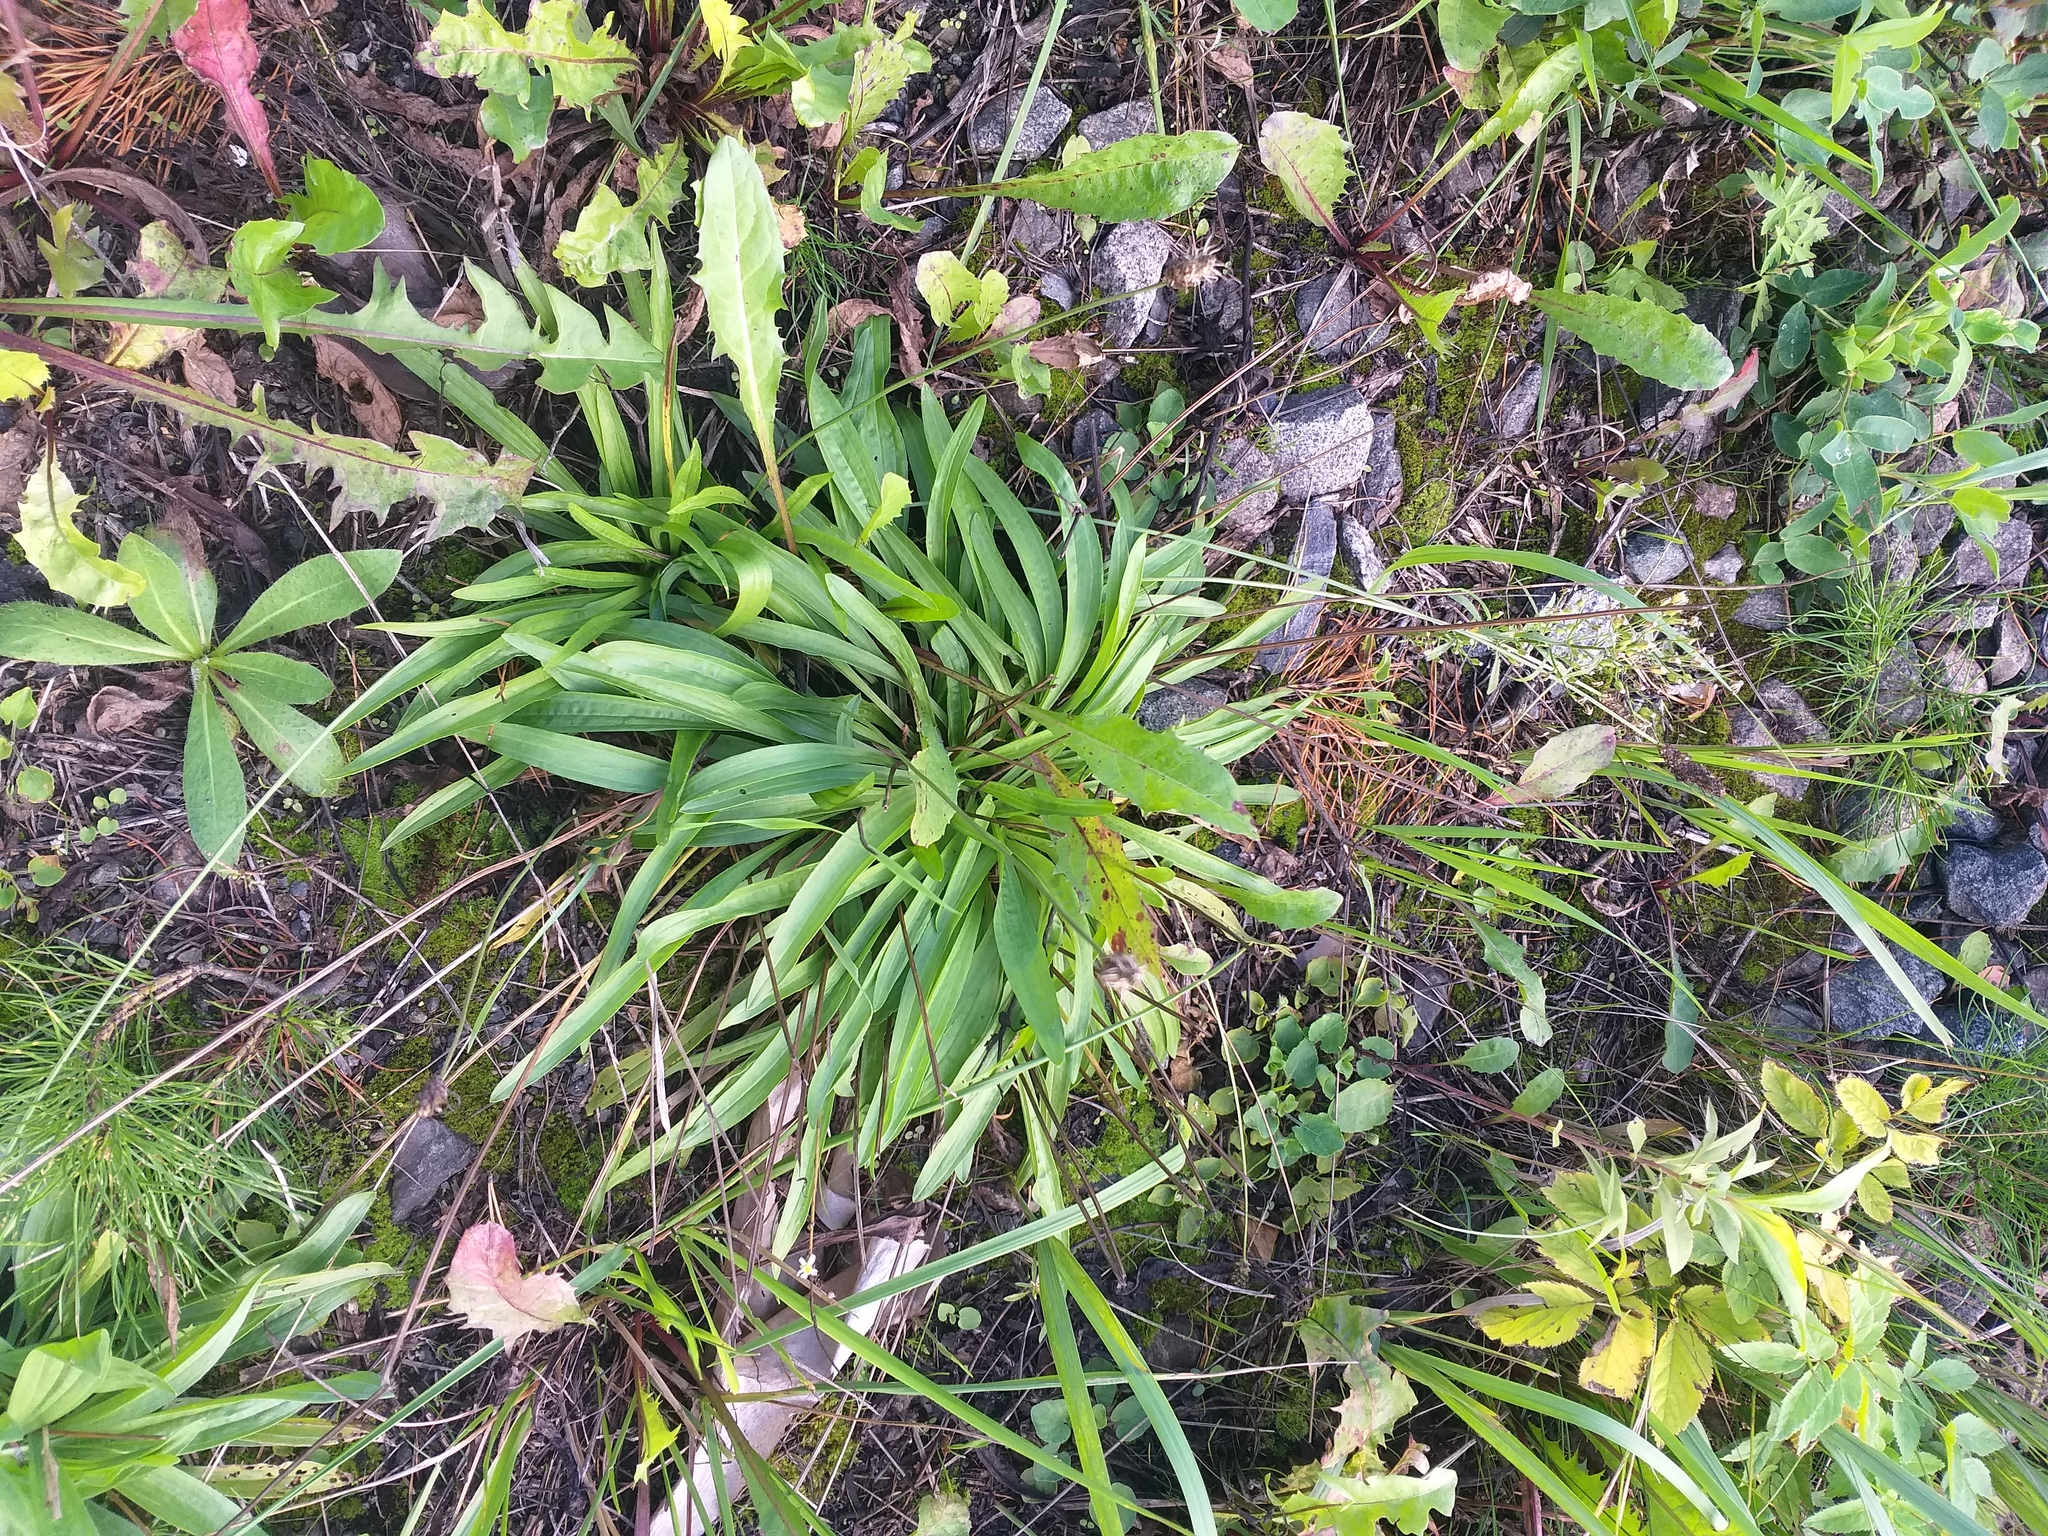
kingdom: Plantae
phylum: Tracheophyta
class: Magnoliopsida
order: Lamiales
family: Plantaginaceae
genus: Plantago
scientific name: Plantago lanceolata
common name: Ribwort plantain
